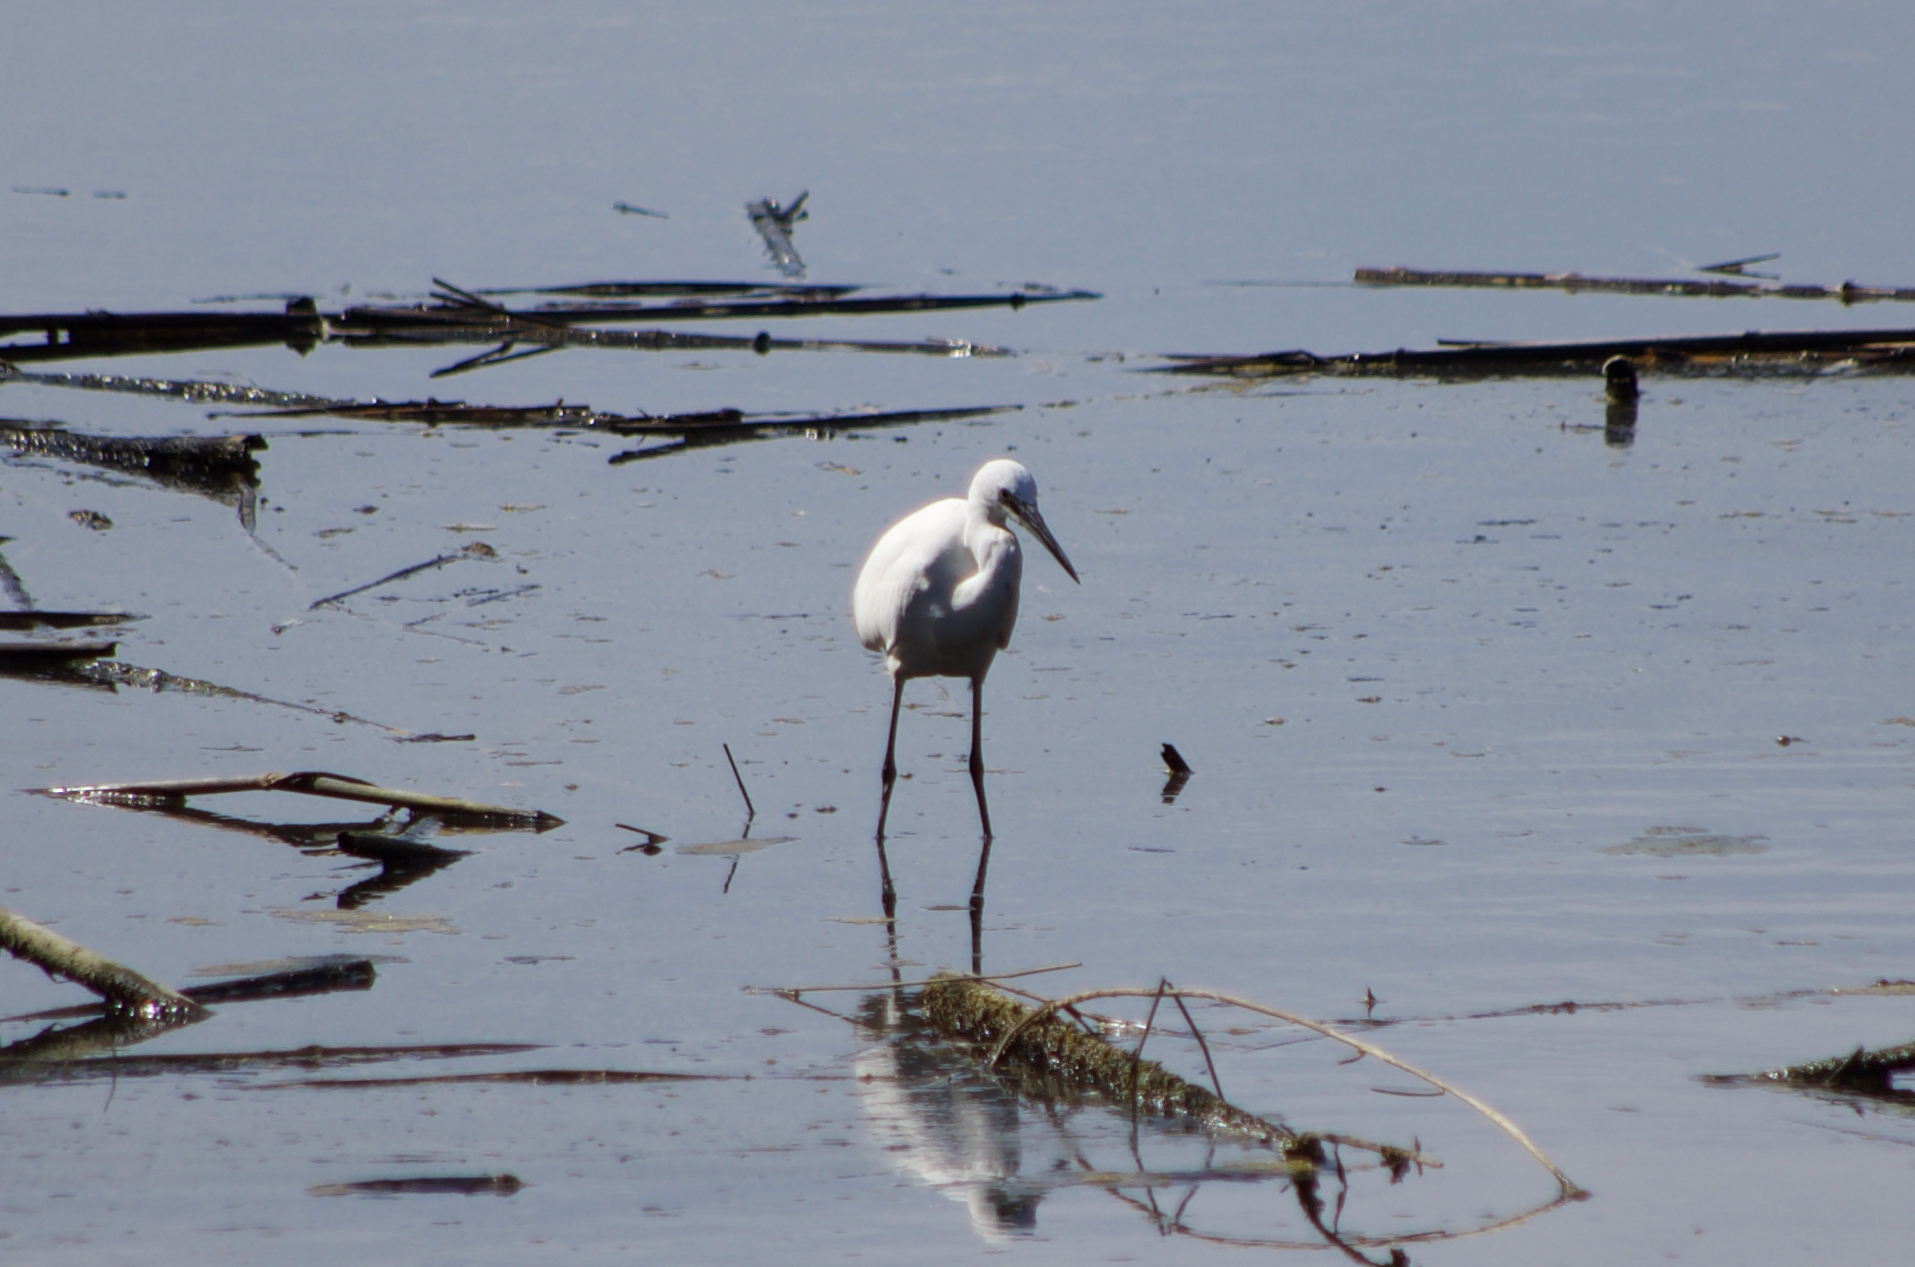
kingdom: Animalia
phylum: Chordata
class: Aves
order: Pelecaniformes
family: Ardeidae
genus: Egretta
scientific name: Egretta garzetta
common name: Little egret
